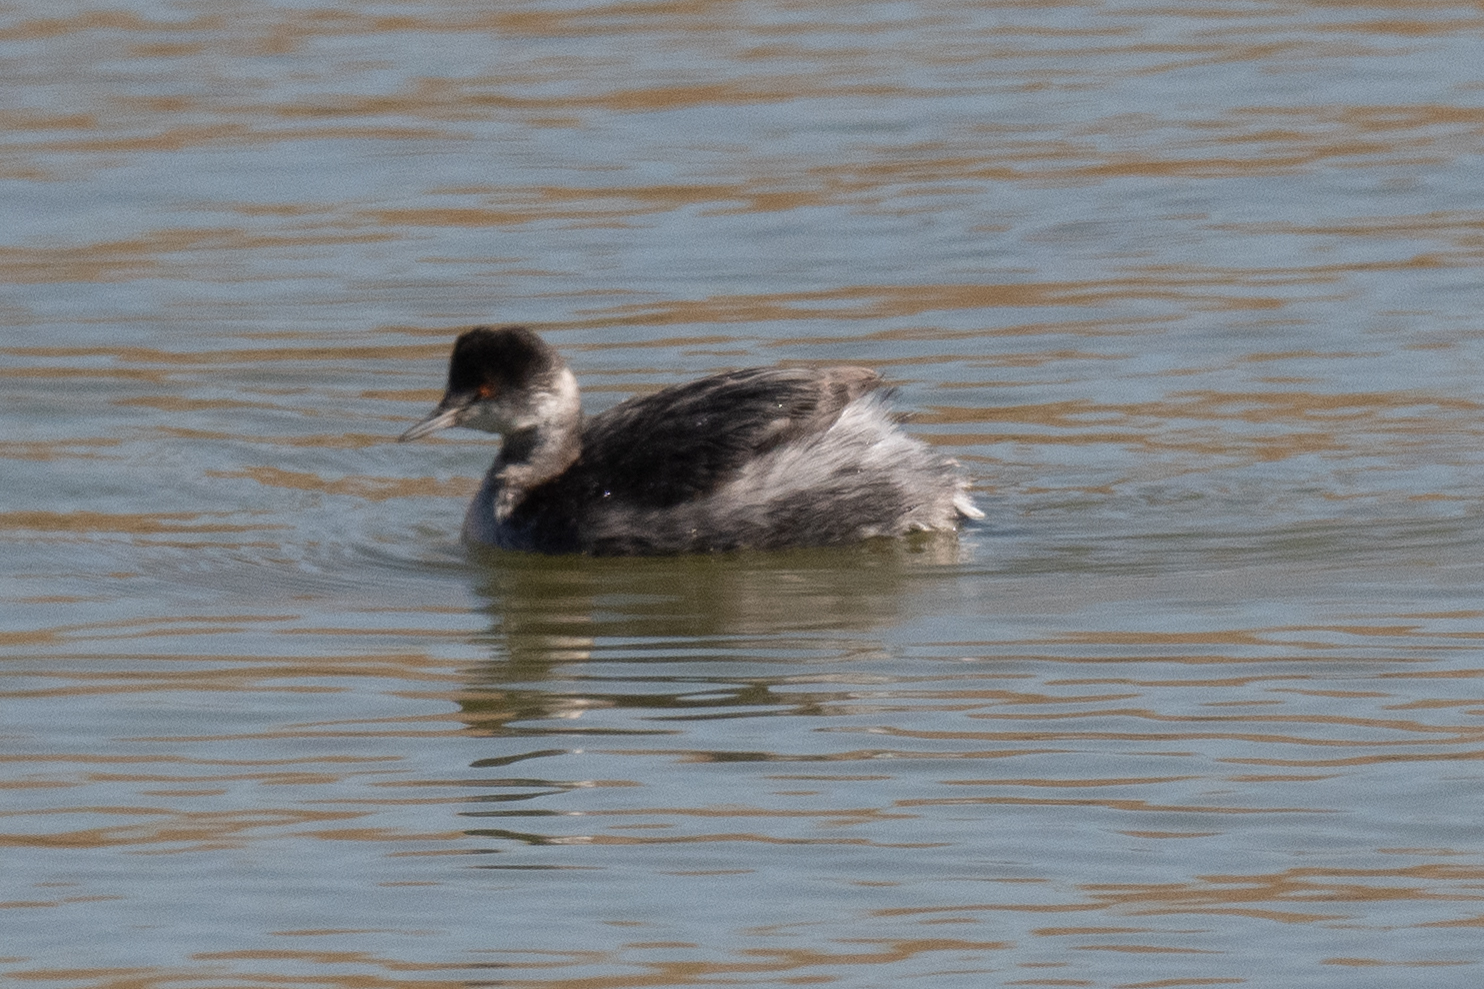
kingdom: Animalia
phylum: Chordata
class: Aves
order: Podicipediformes
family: Podicipedidae
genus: Podiceps
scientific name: Podiceps nigricollis
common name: Black-necked grebe
